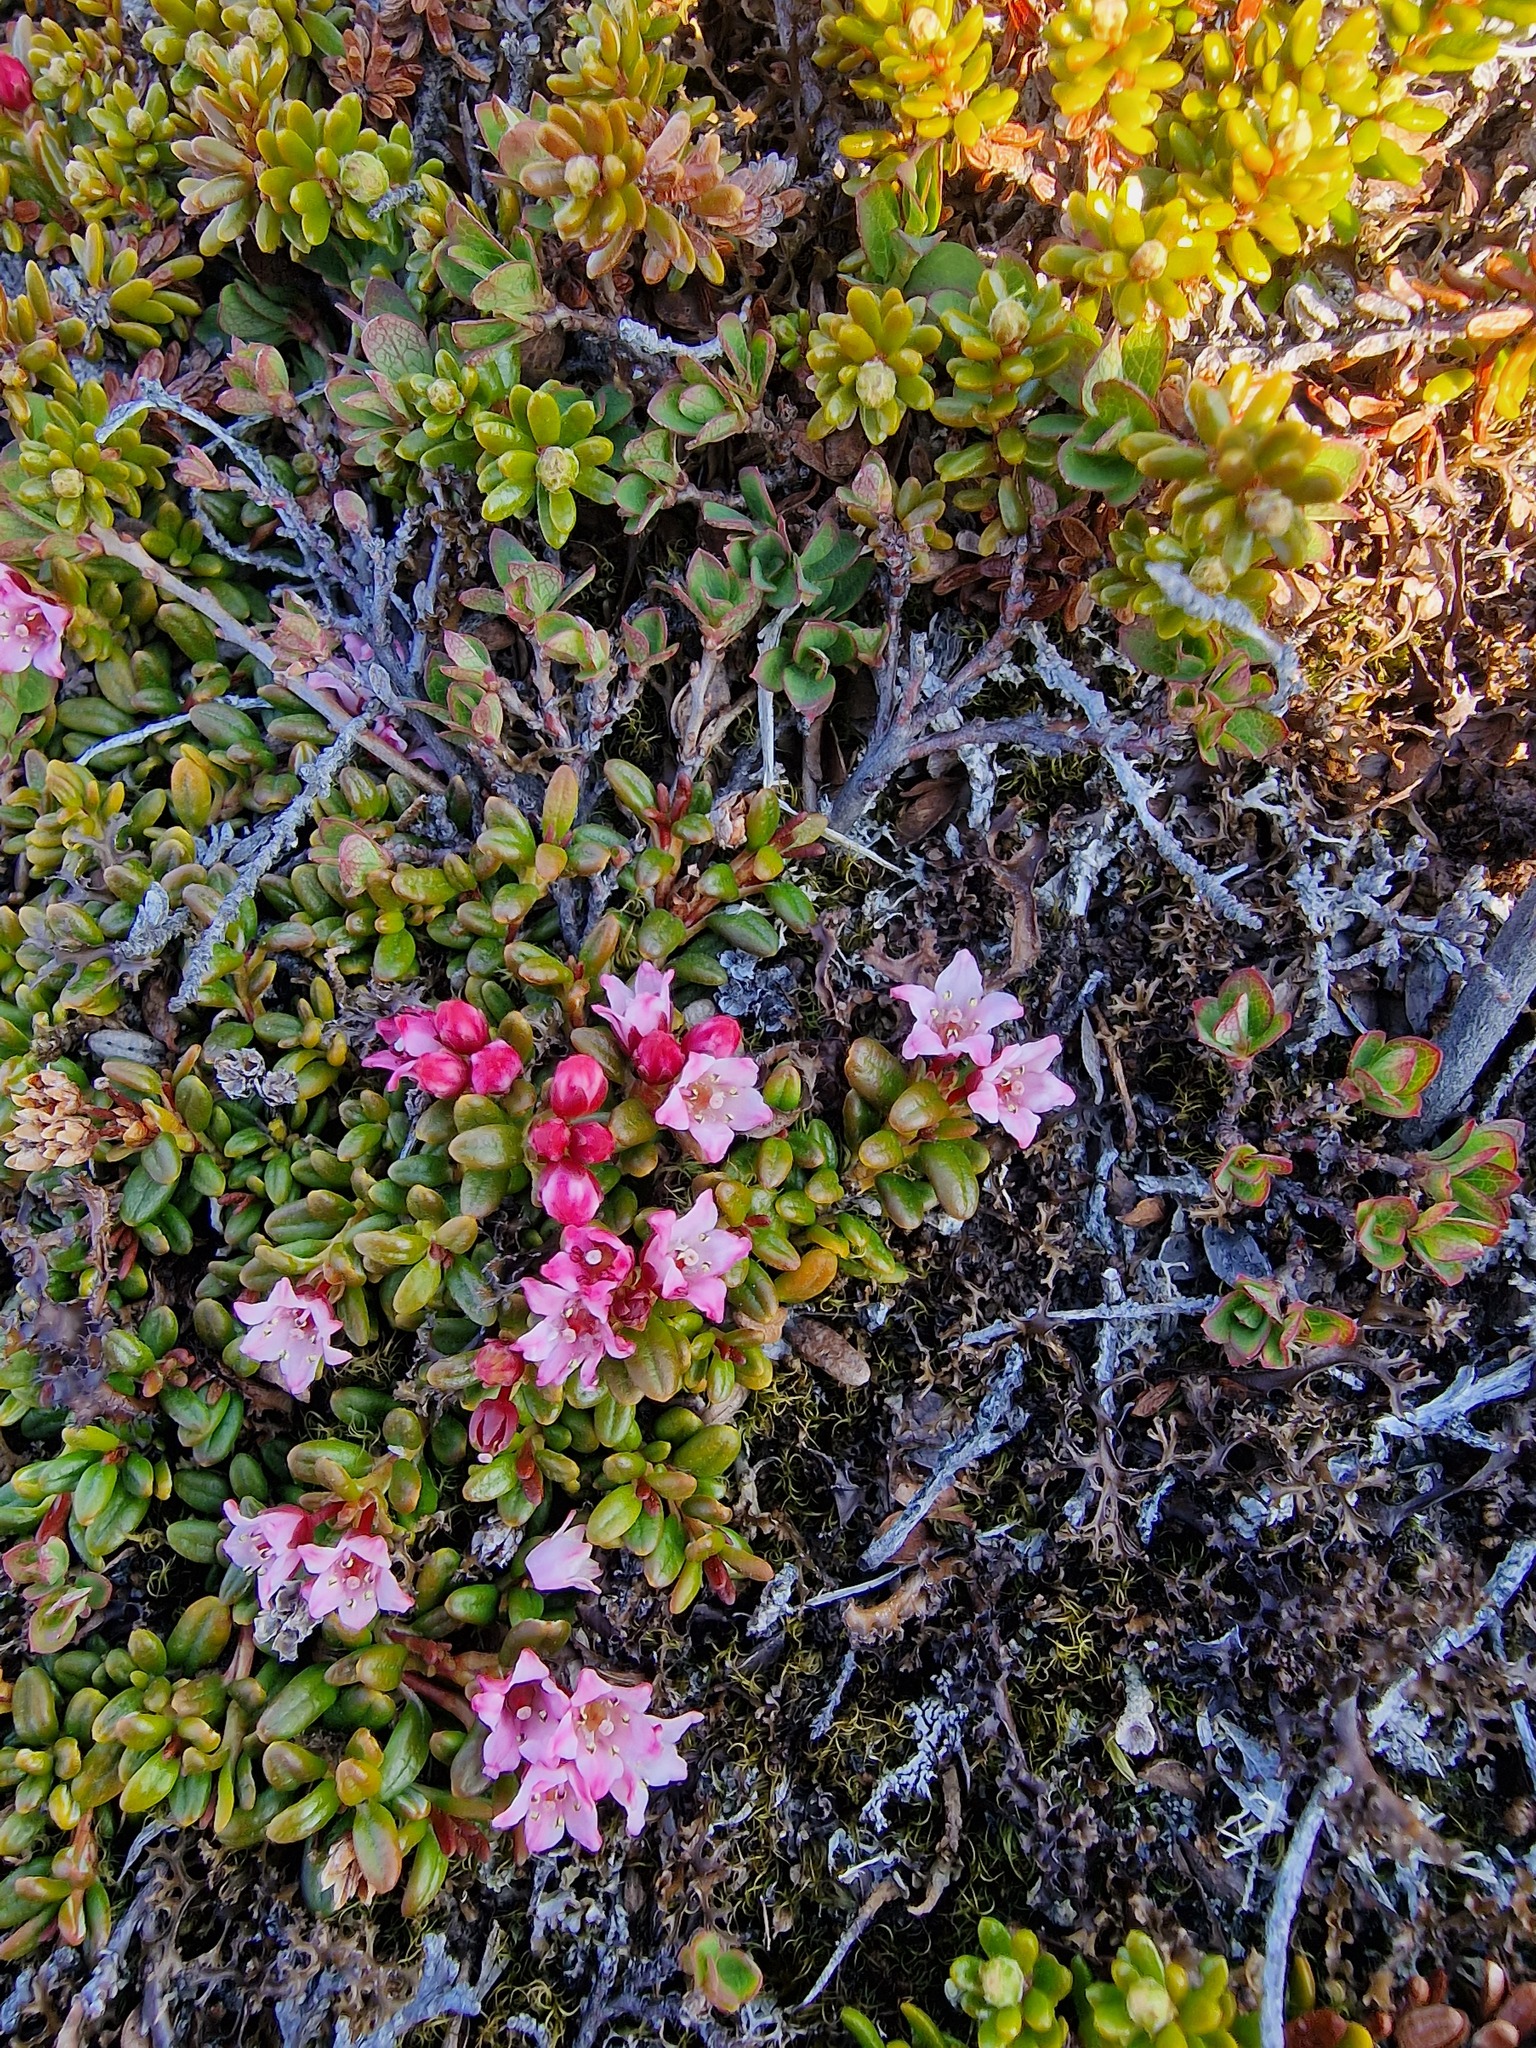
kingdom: Plantae
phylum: Tracheophyta
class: Magnoliopsida
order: Ericales
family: Ericaceae
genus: Kalmia
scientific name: Kalmia procumbens
